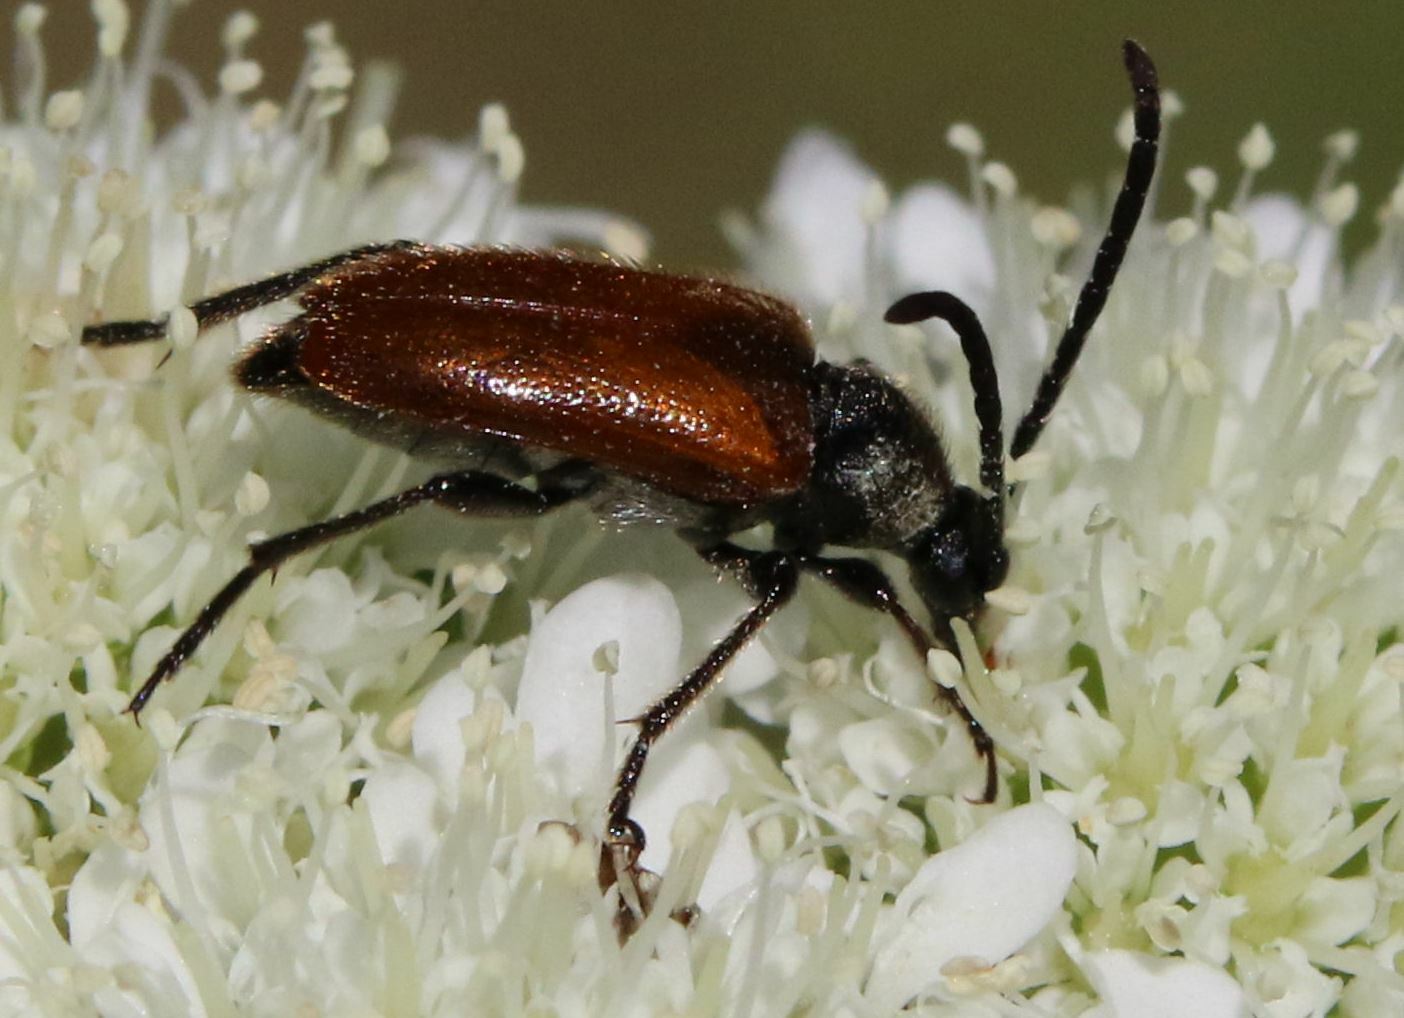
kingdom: Animalia
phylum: Arthropoda
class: Insecta
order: Coleoptera
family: Cerambycidae
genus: Pseudovadonia
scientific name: Pseudovadonia livida
